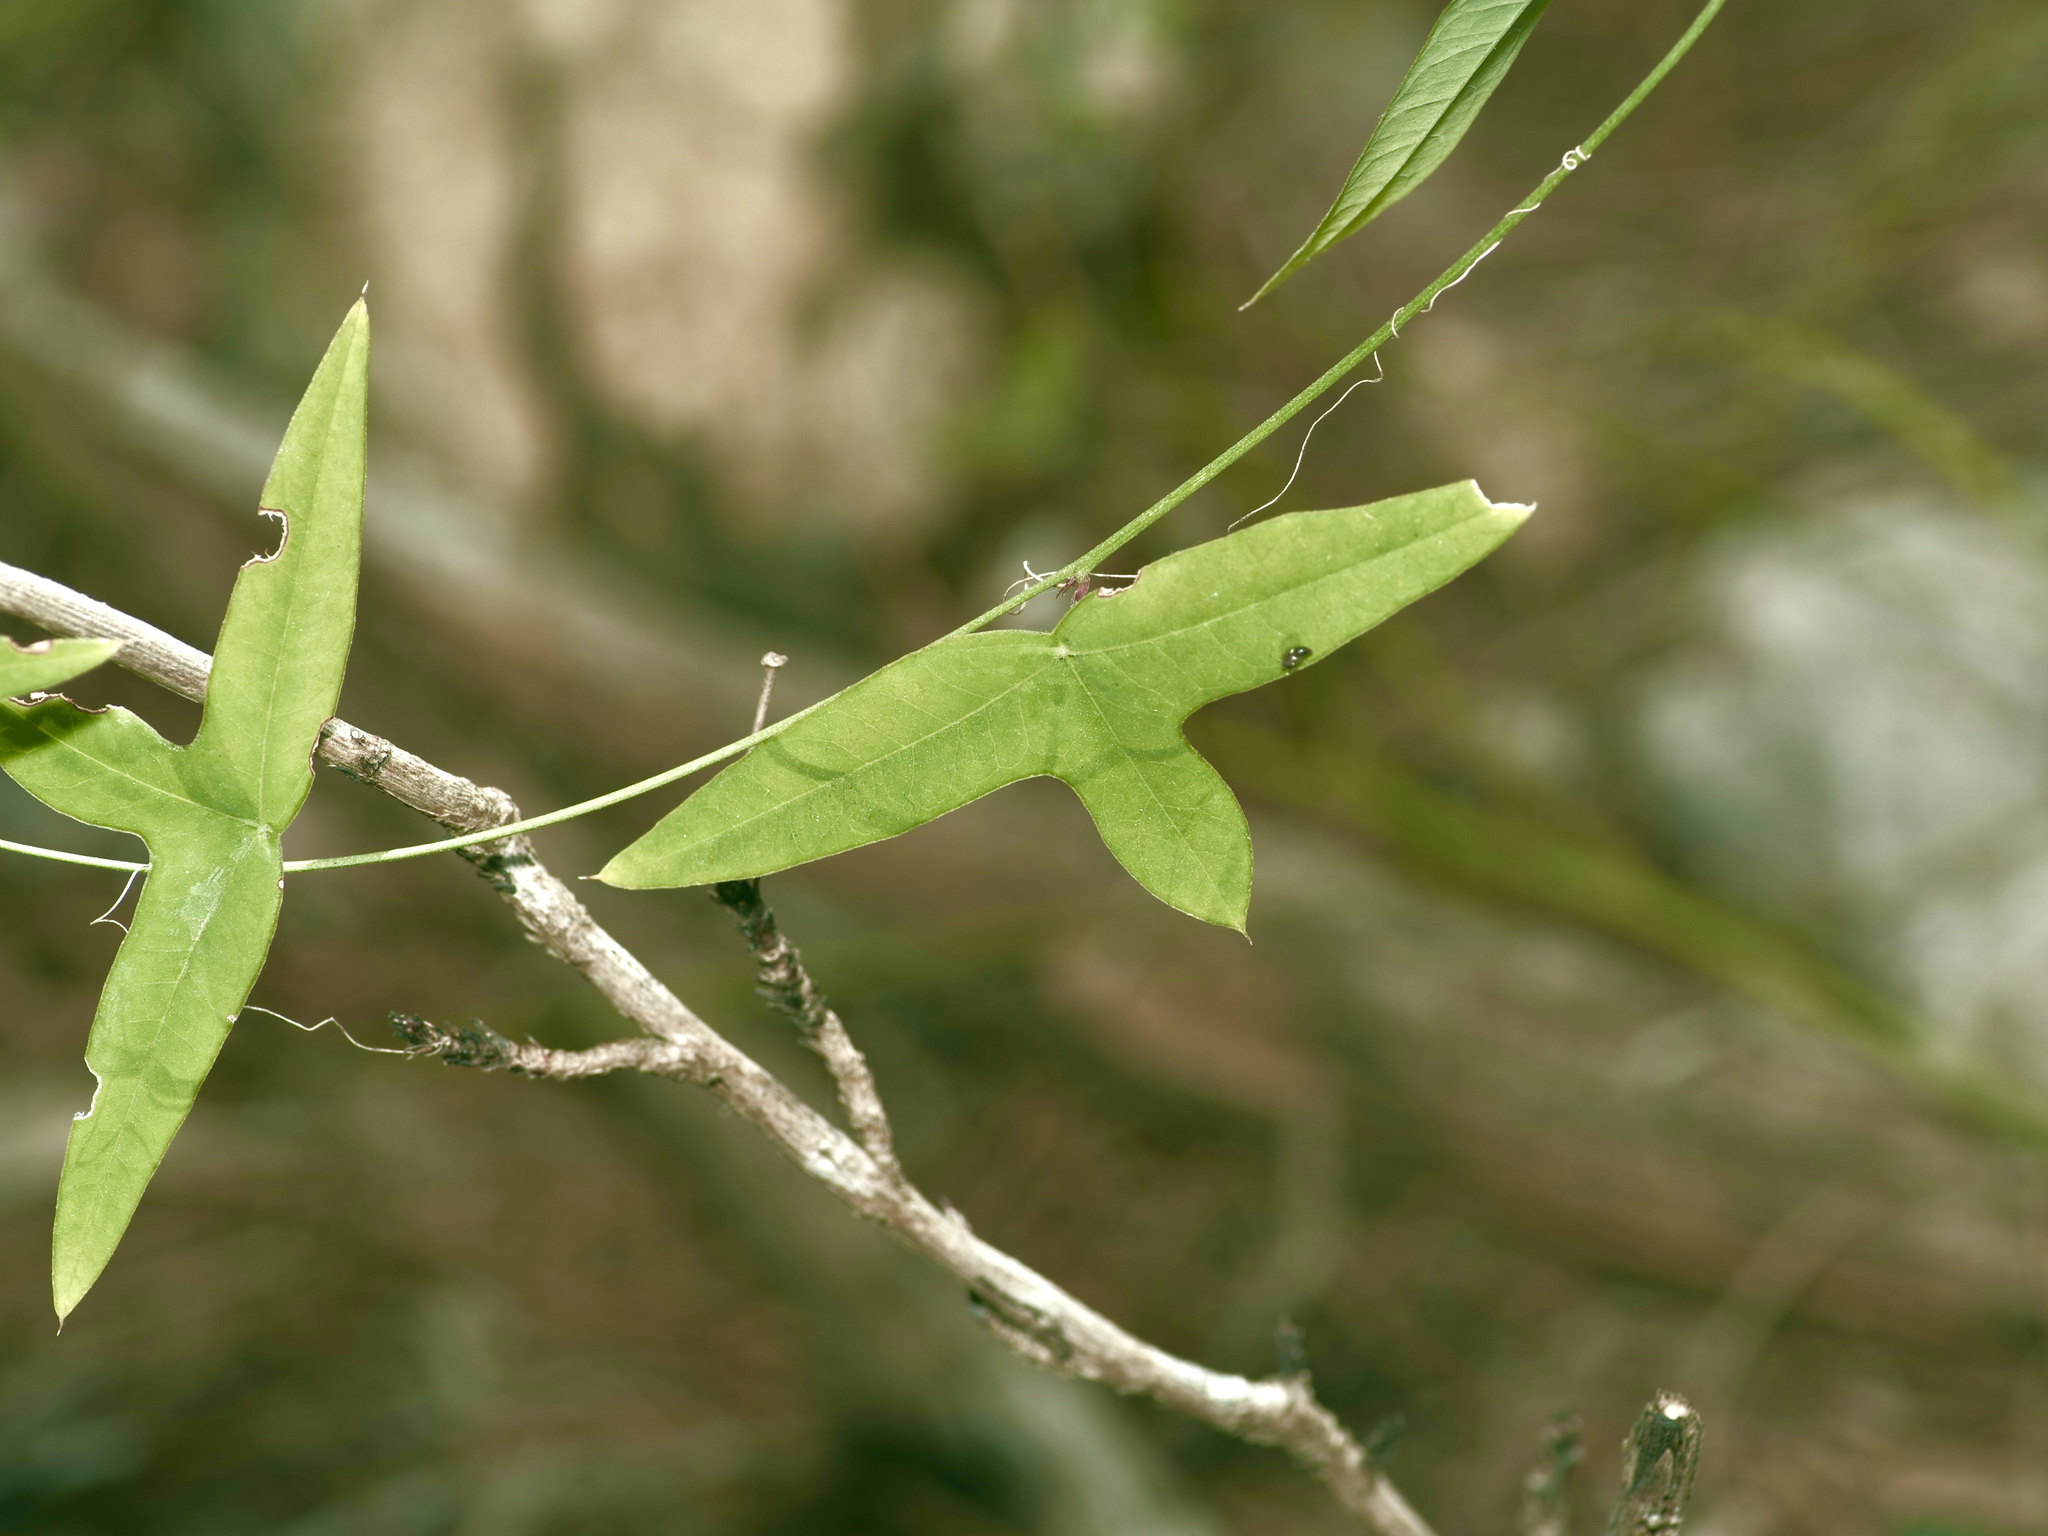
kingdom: Plantae
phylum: Tracheophyta
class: Magnoliopsida
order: Malpighiales
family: Passifloraceae
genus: Passiflora
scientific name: Passiflora tenuiloba
